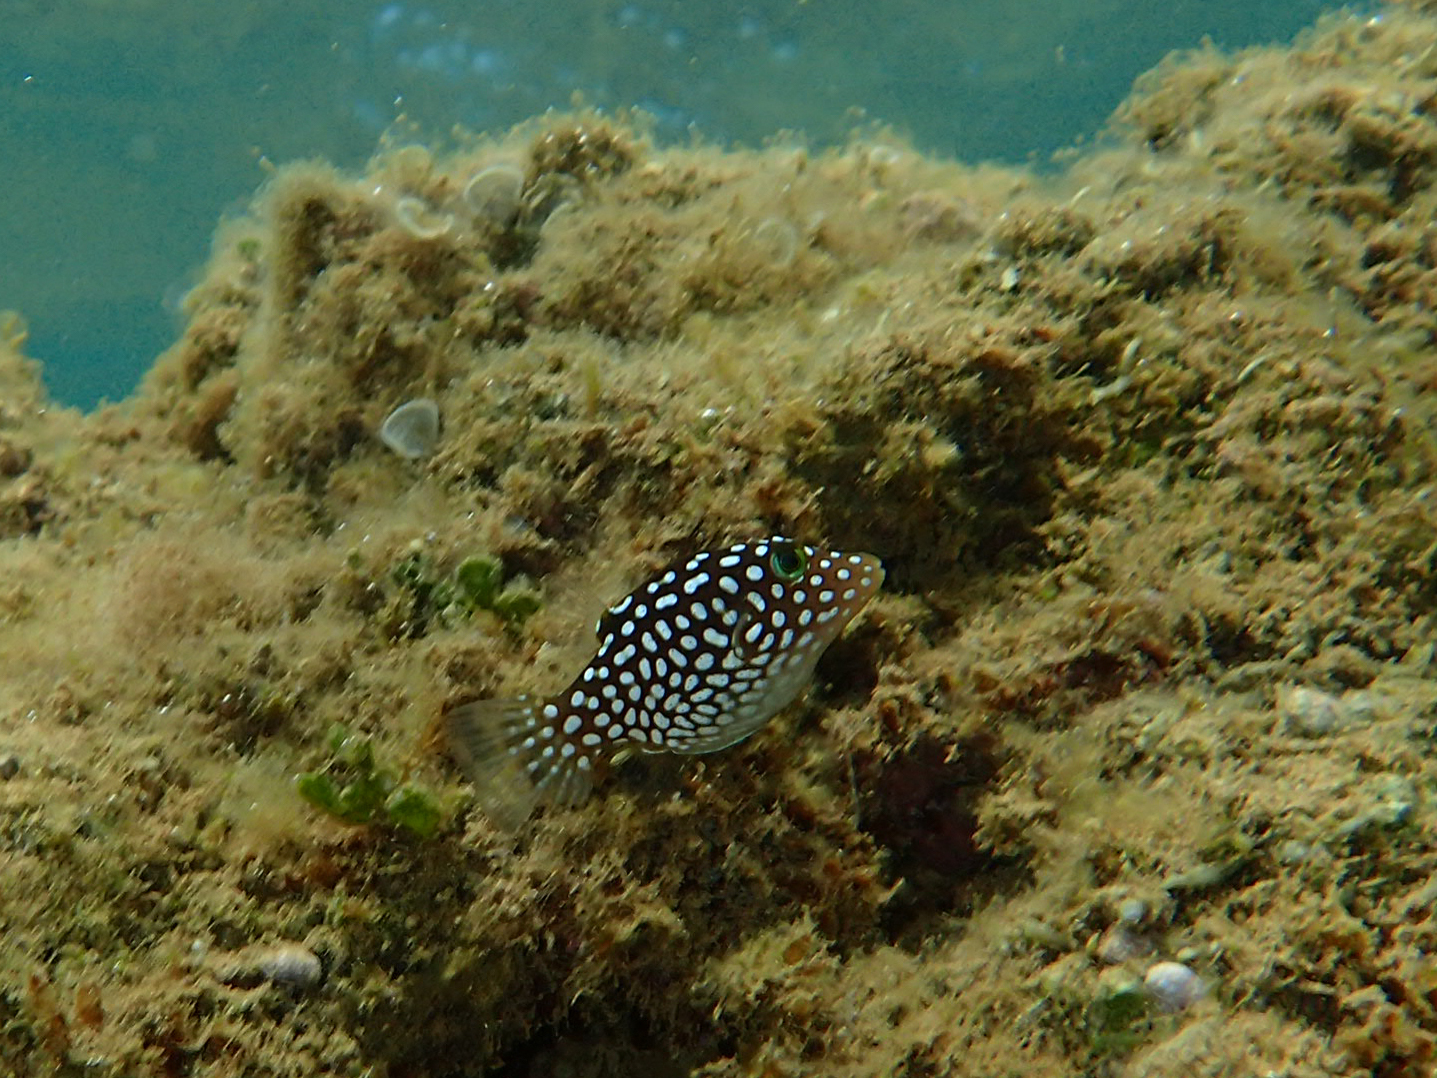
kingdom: Animalia
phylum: Chordata
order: Tetraodontiformes
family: Tetraodontidae
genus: Canthigaster
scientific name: Canthigaster jactator
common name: Hawaiian whitespotted toby
